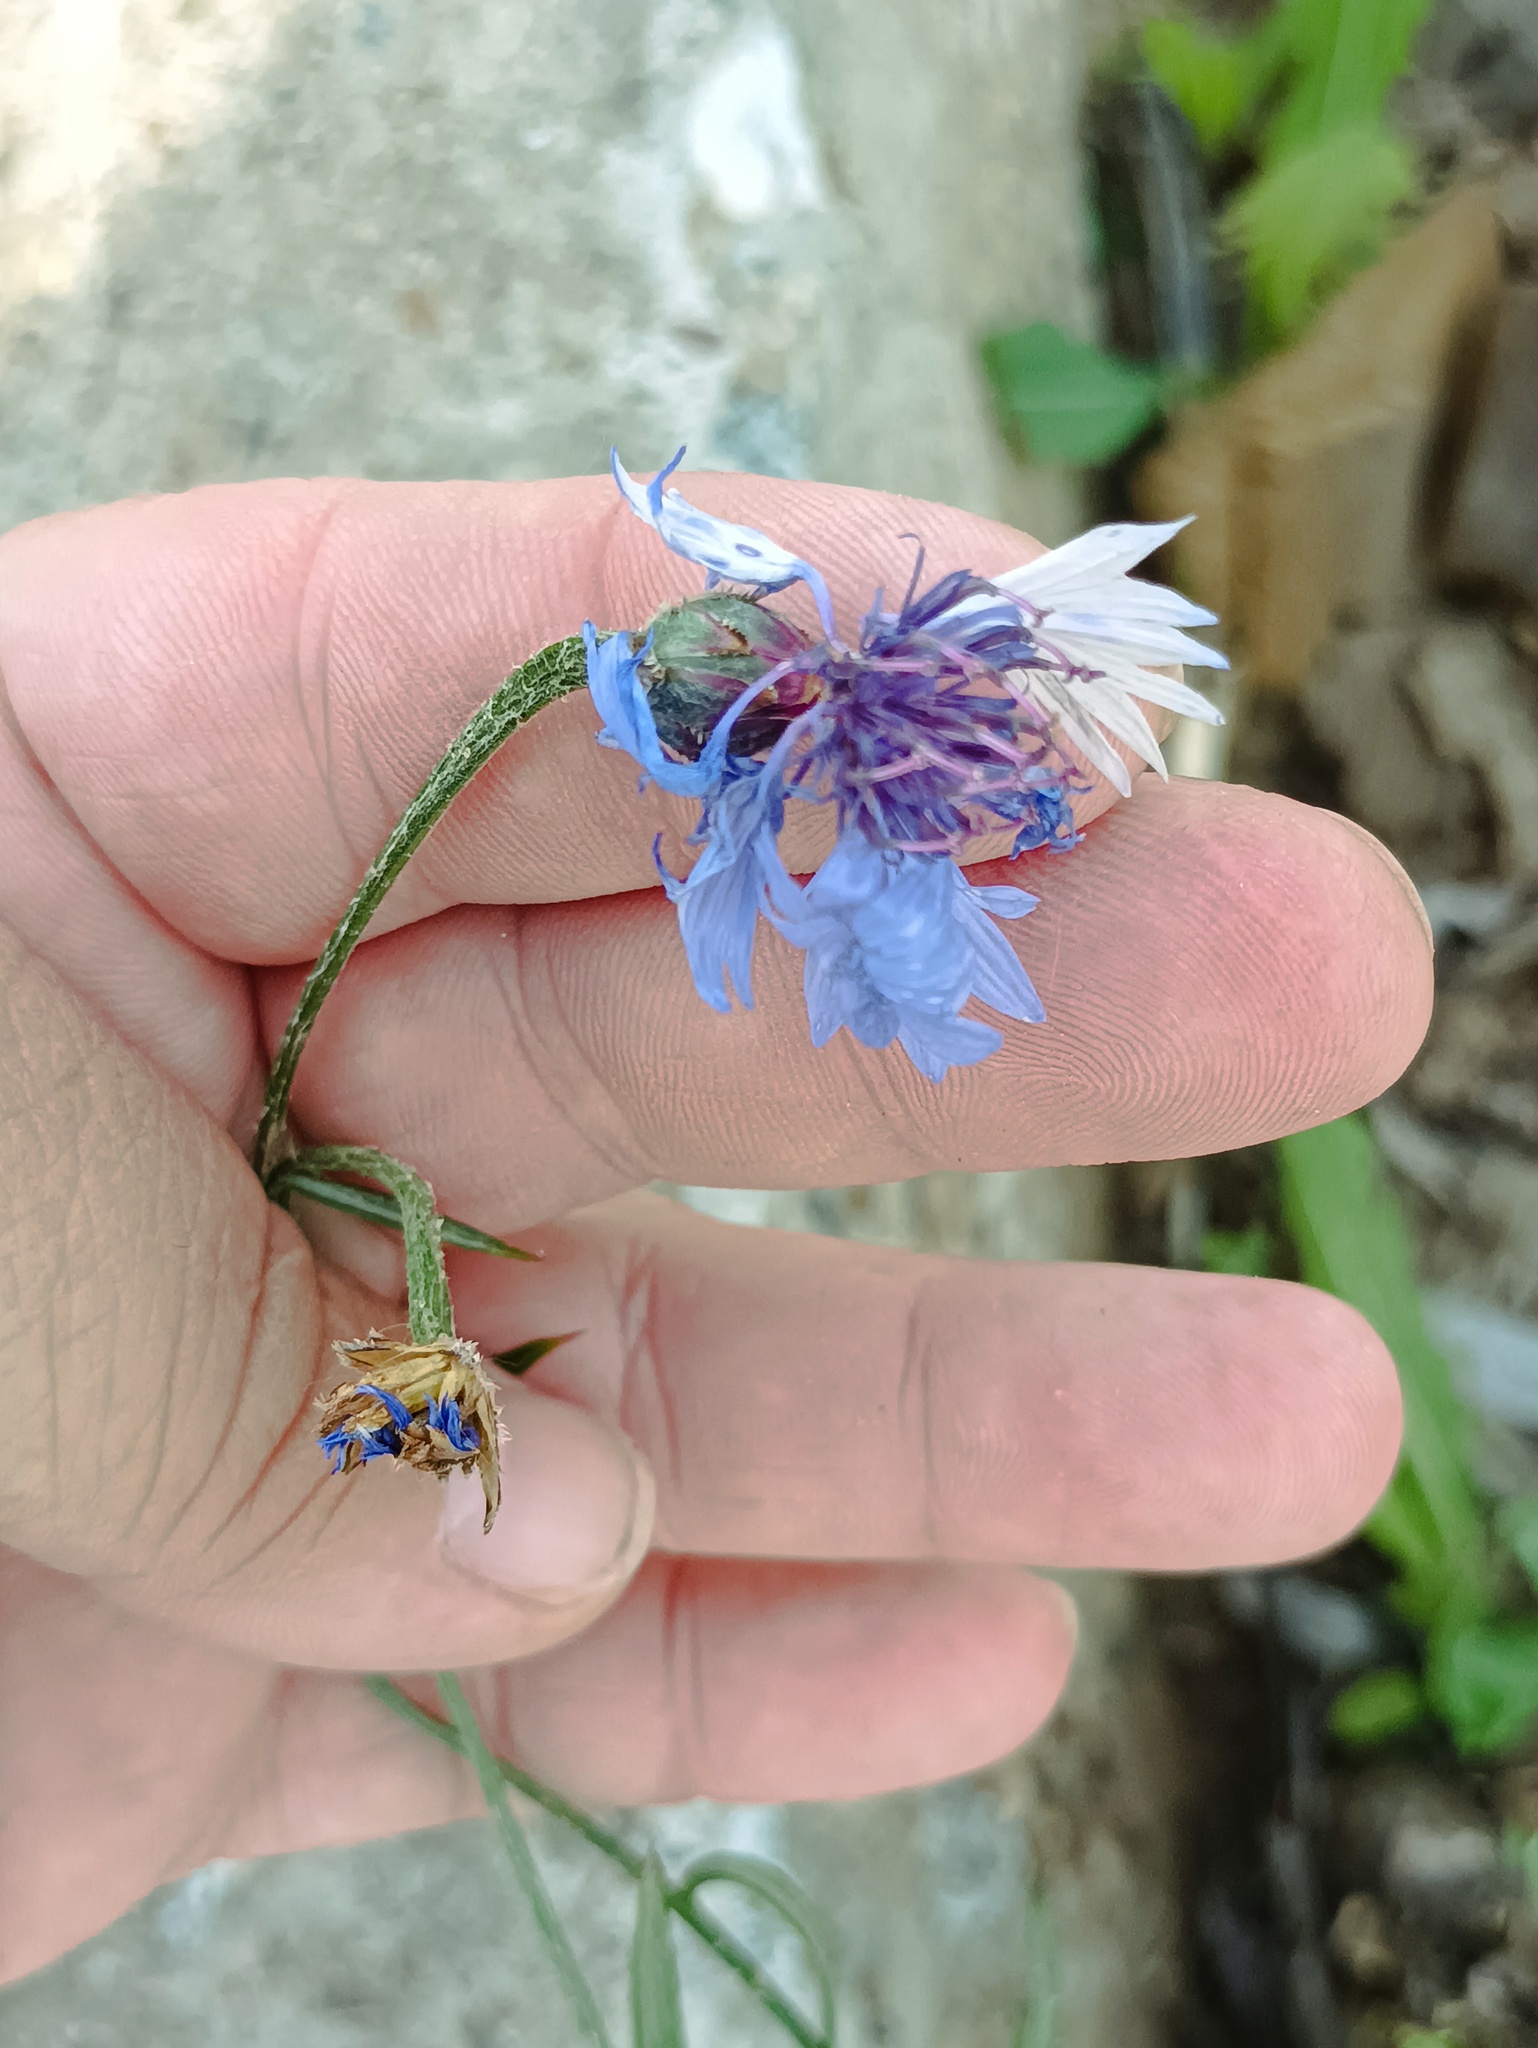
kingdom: Plantae
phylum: Tracheophyta
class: Magnoliopsida
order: Asterales
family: Asteraceae
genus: Centaurea
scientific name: Centaurea cyanus
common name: Cornflower
